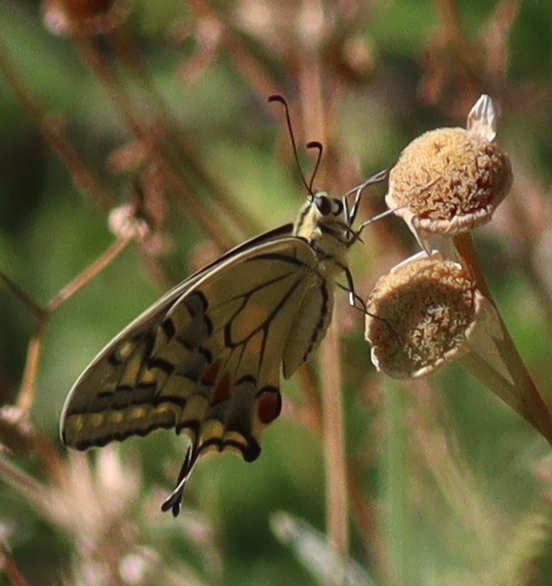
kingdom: Animalia
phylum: Arthropoda
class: Insecta
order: Lepidoptera
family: Papilionidae
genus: Papilio
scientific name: Papilio machaon
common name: Swallowtail
